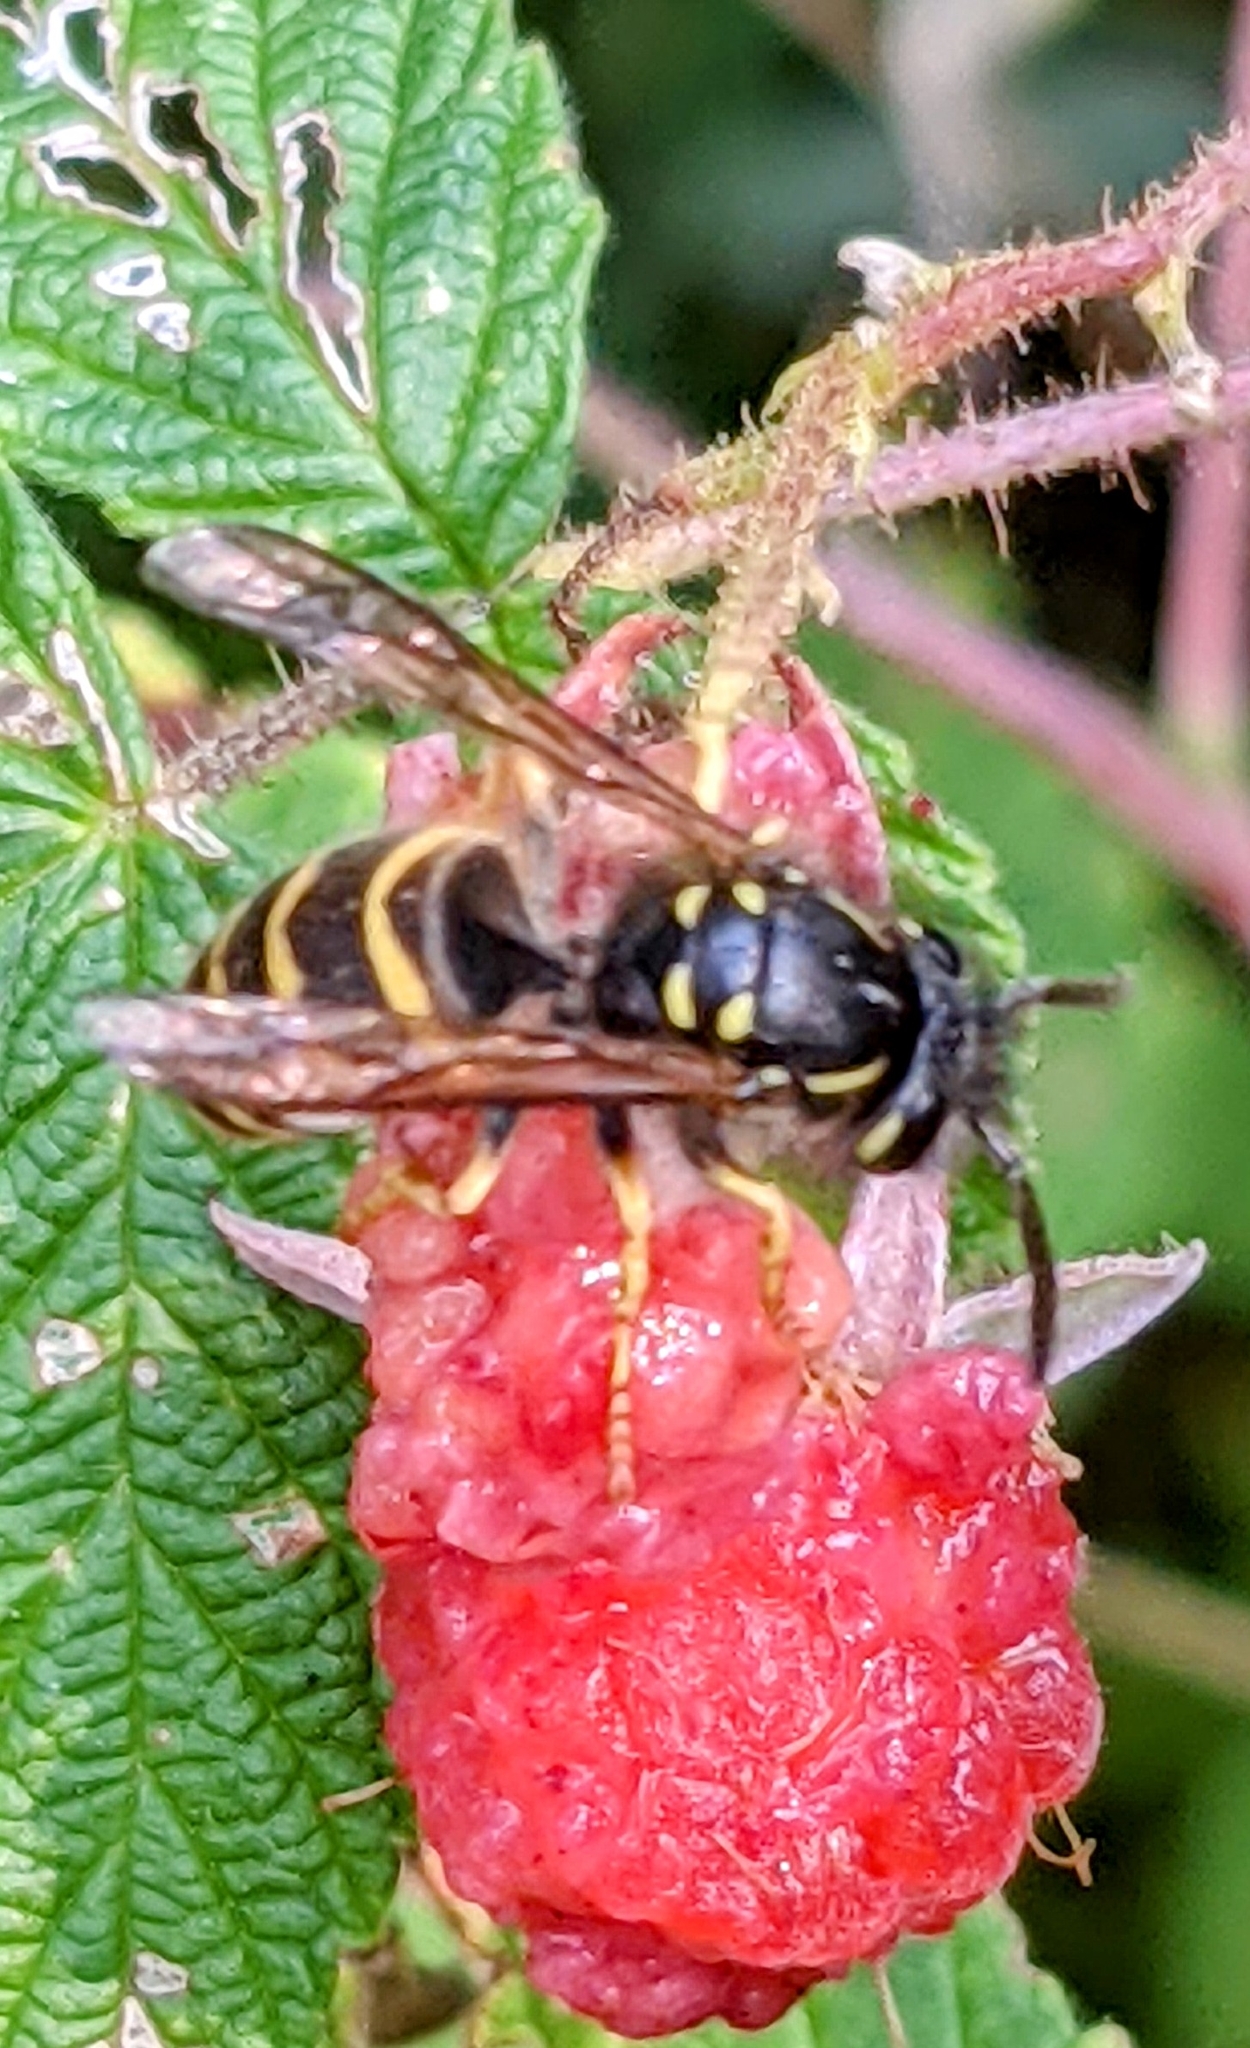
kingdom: Animalia
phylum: Arthropoda
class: Insecta
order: Hymenoptera
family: Vespidae
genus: Vespula
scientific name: Vespula alascensis
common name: Alaska yellowjacket
